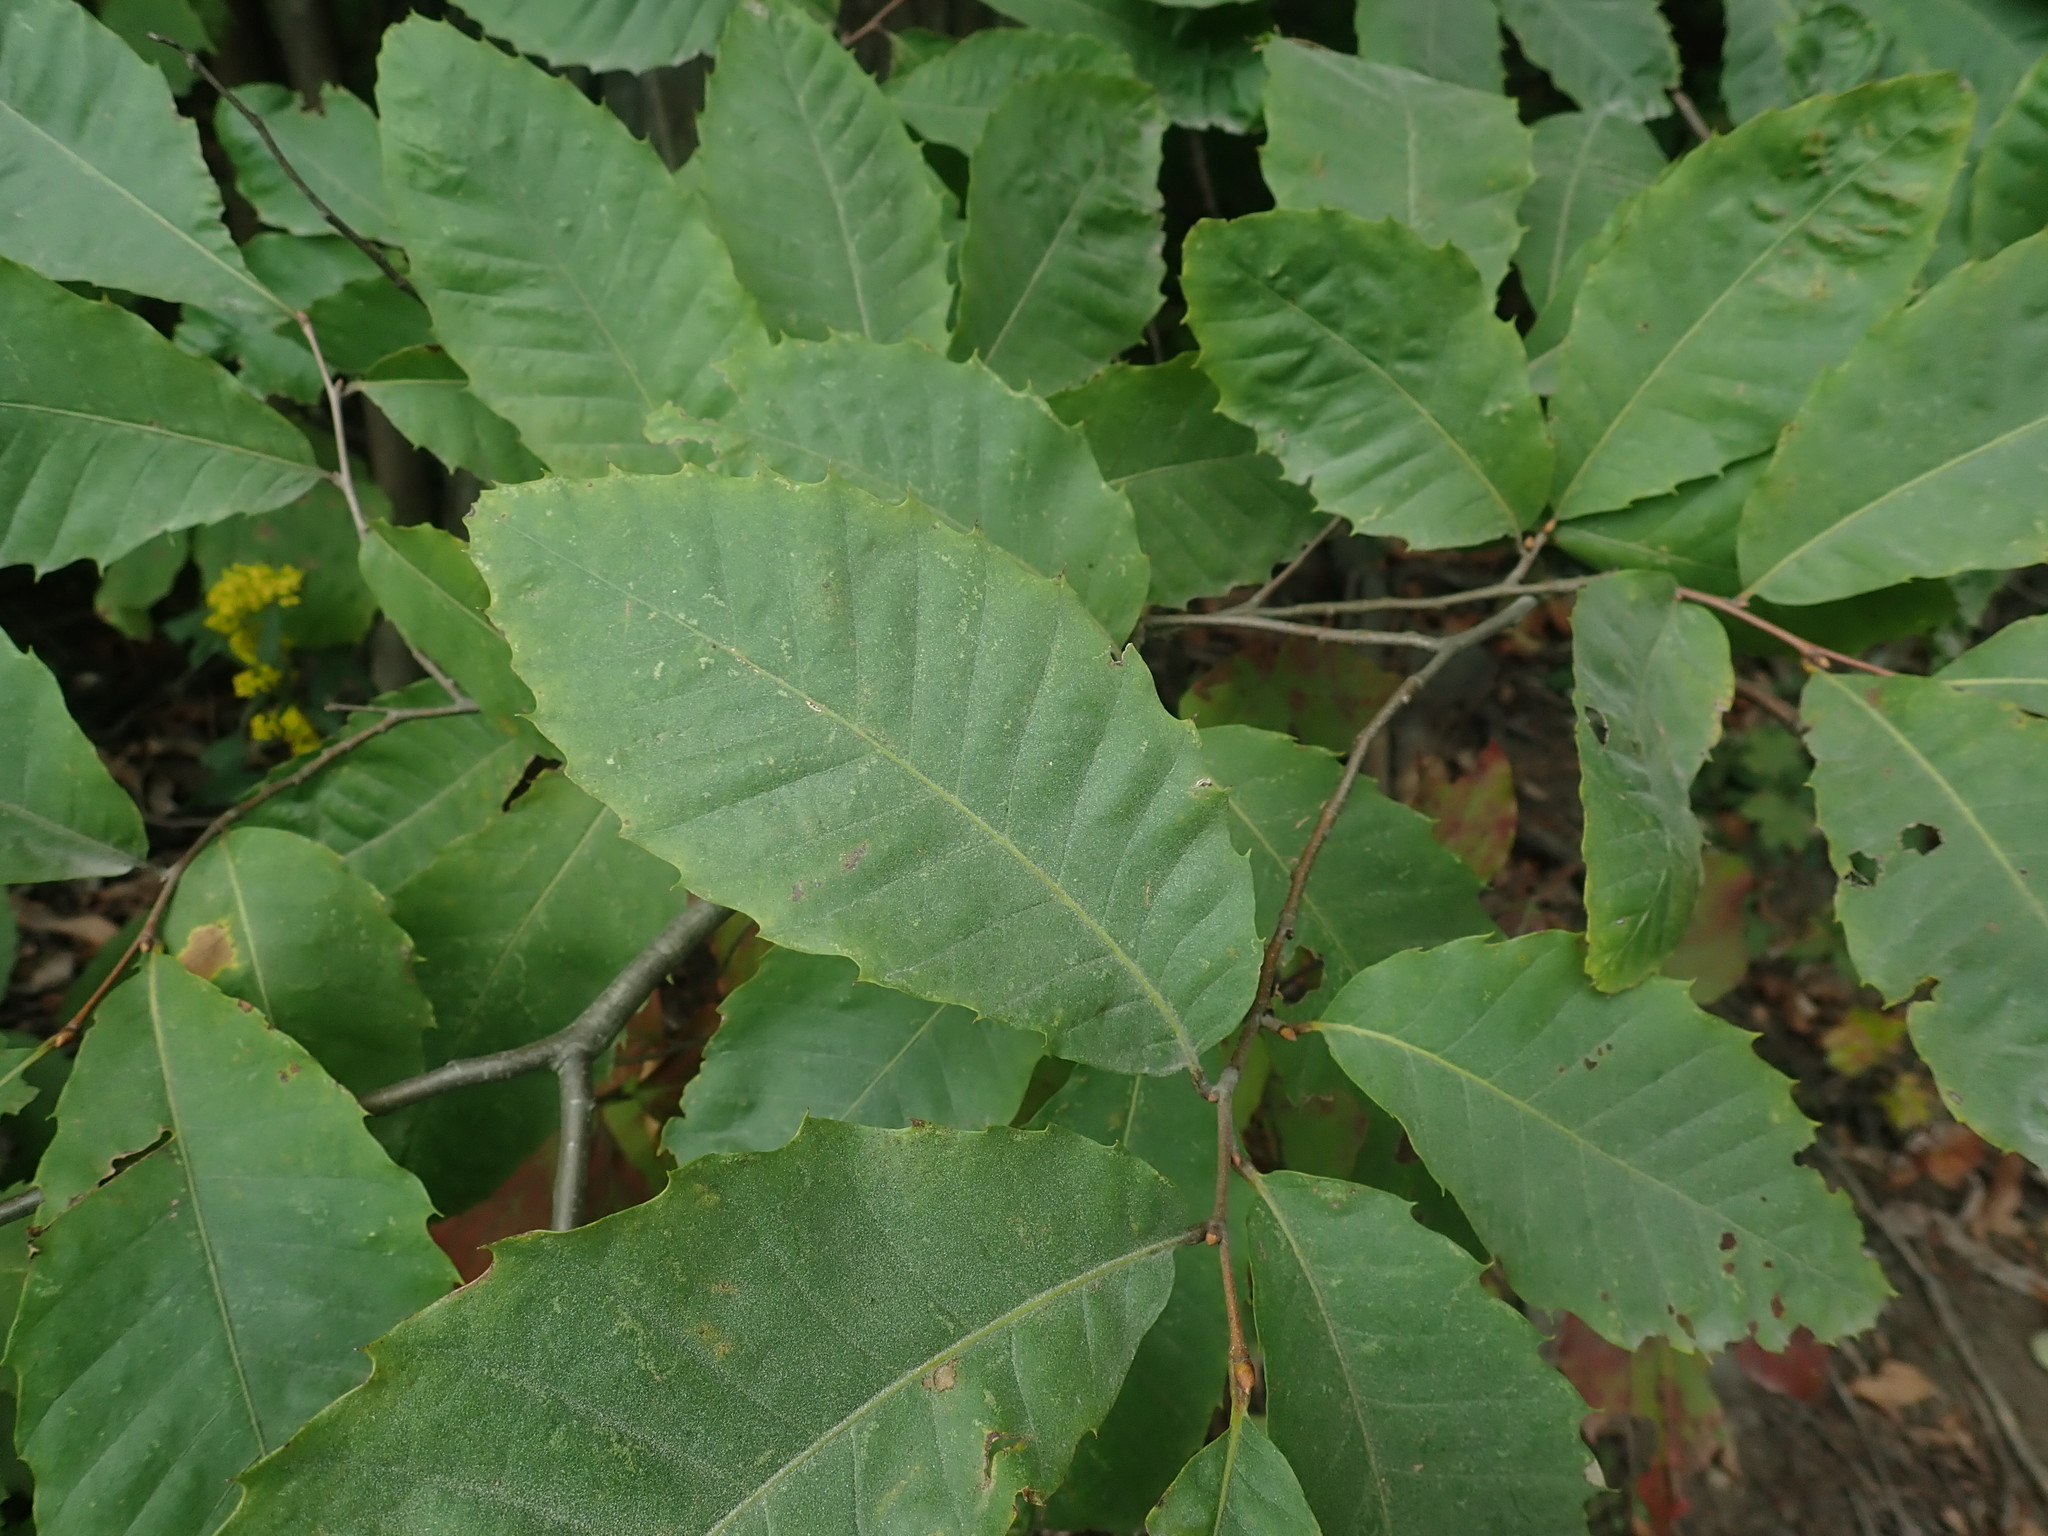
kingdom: Plantae
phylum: Tracheophyta
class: Magnoliopsida
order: Fagales
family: Fagaceae
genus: Castanea
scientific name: Castanea dentata
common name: American chestnut
